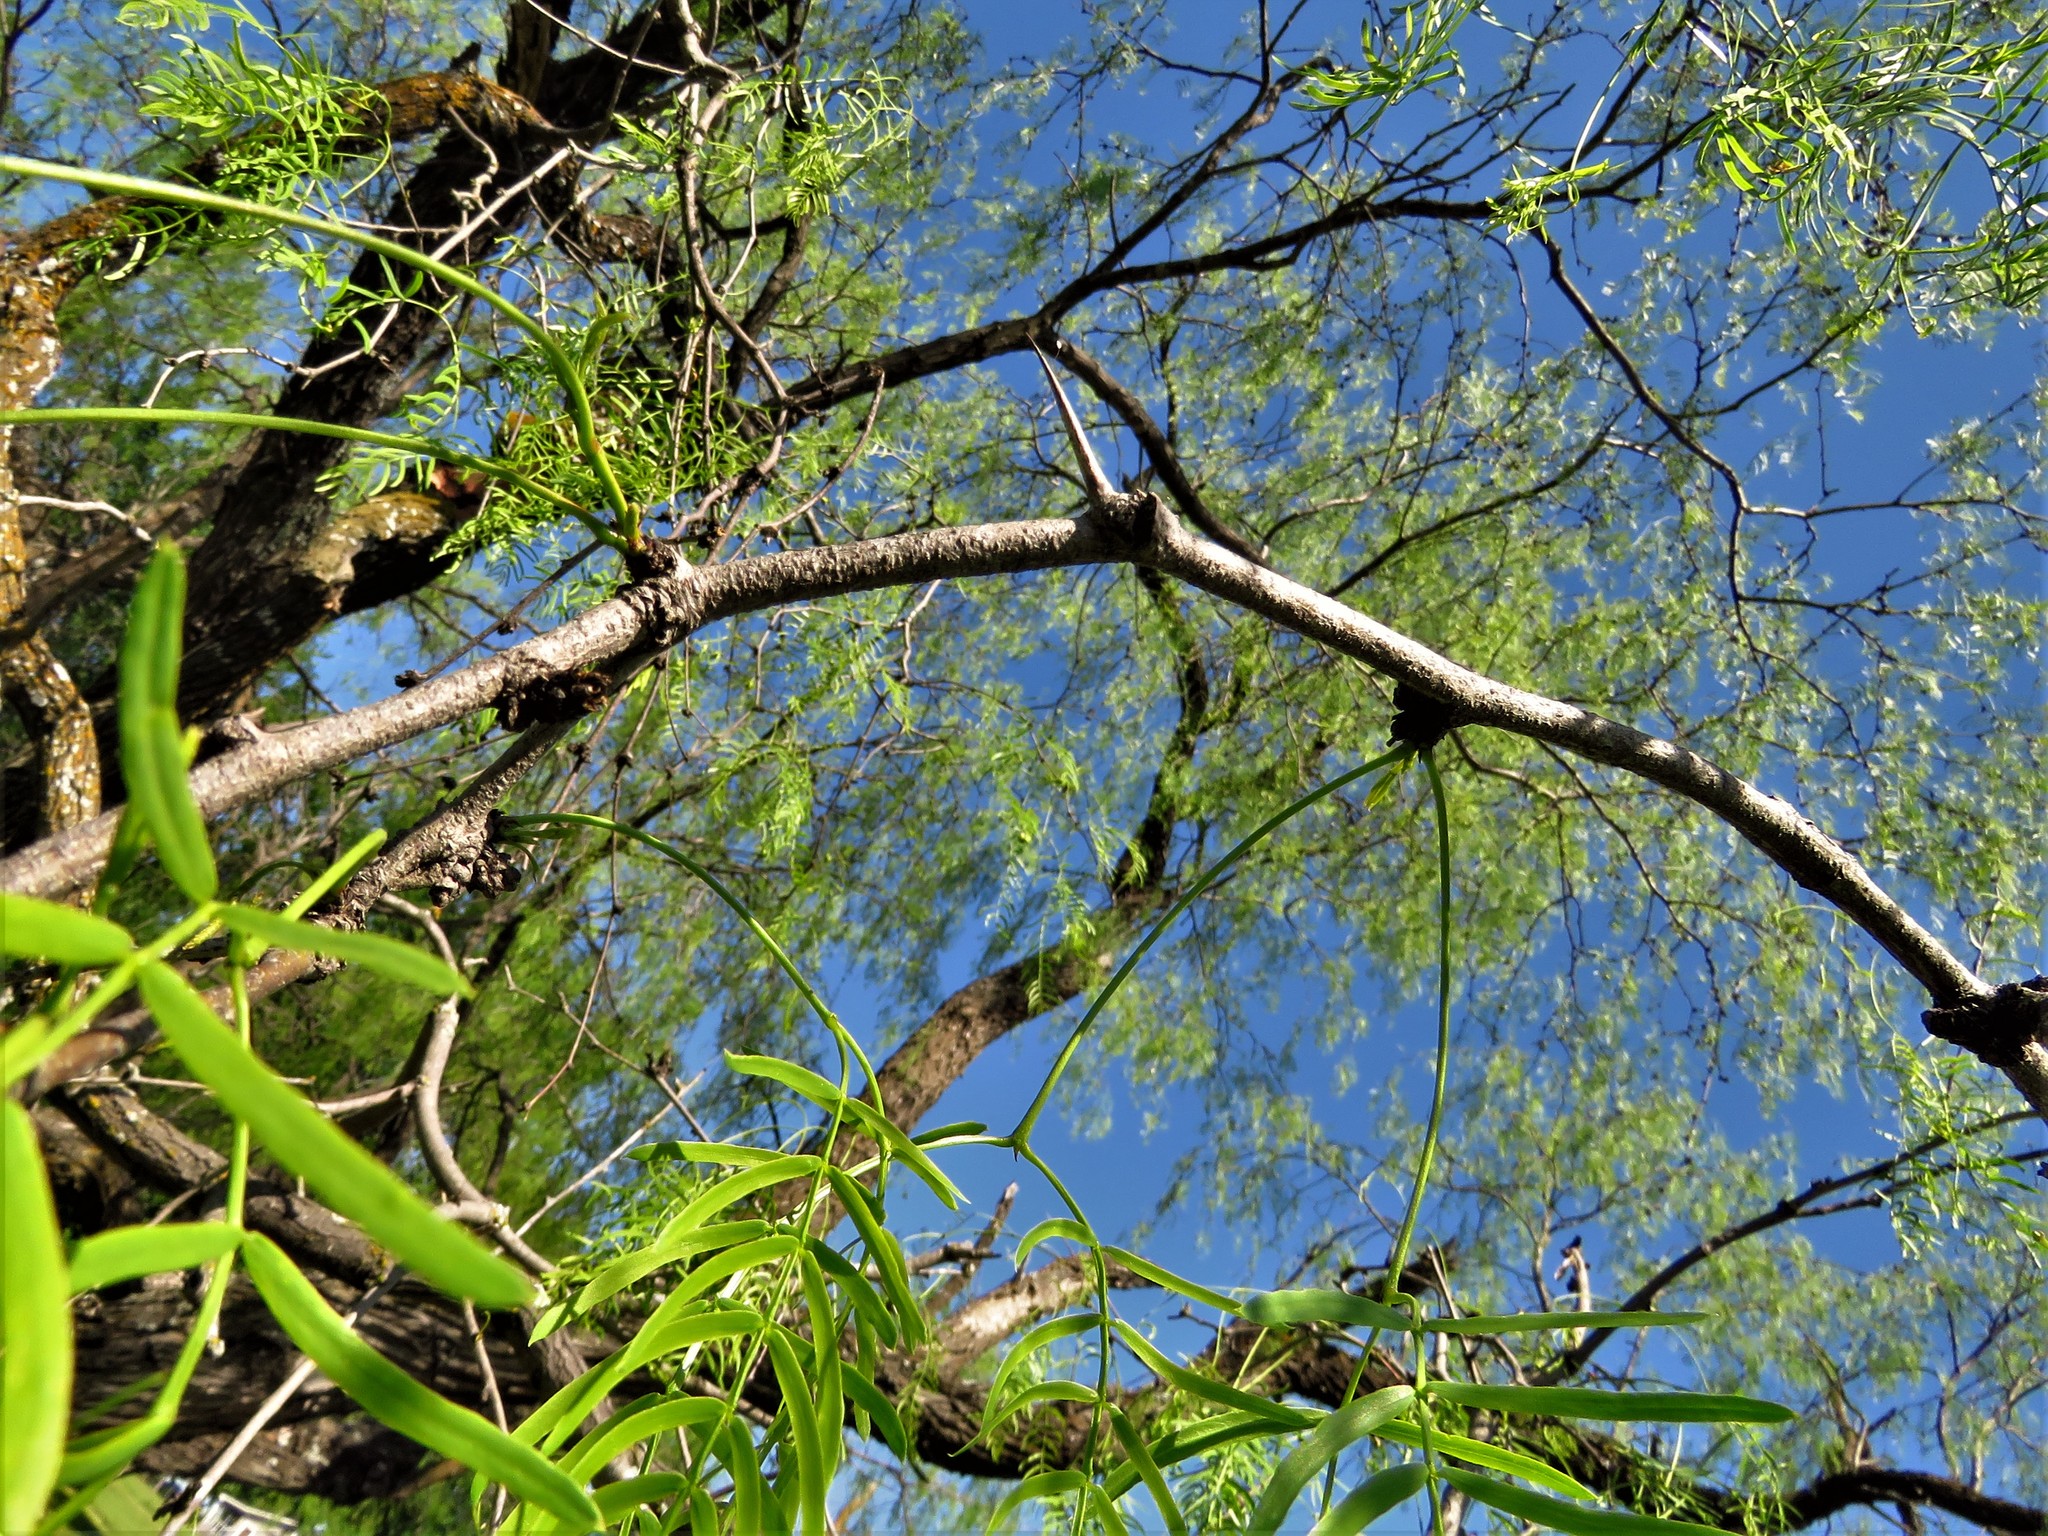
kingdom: Plantae
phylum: Tracheophyta
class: Magnoliopsida
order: Fabales
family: Fabaceae
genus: Prosopis
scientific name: Prosopis glandulosa
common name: Honey mesquite
